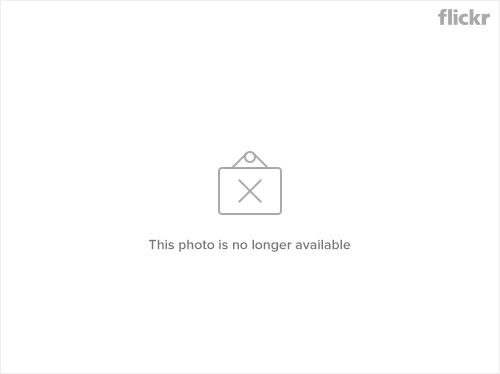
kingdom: Plantae
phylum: Tracheophyta
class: Magnoliopsida
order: Malpighiales
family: Salicaceae
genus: Salix
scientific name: Salix discolor
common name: Glaucous willow
